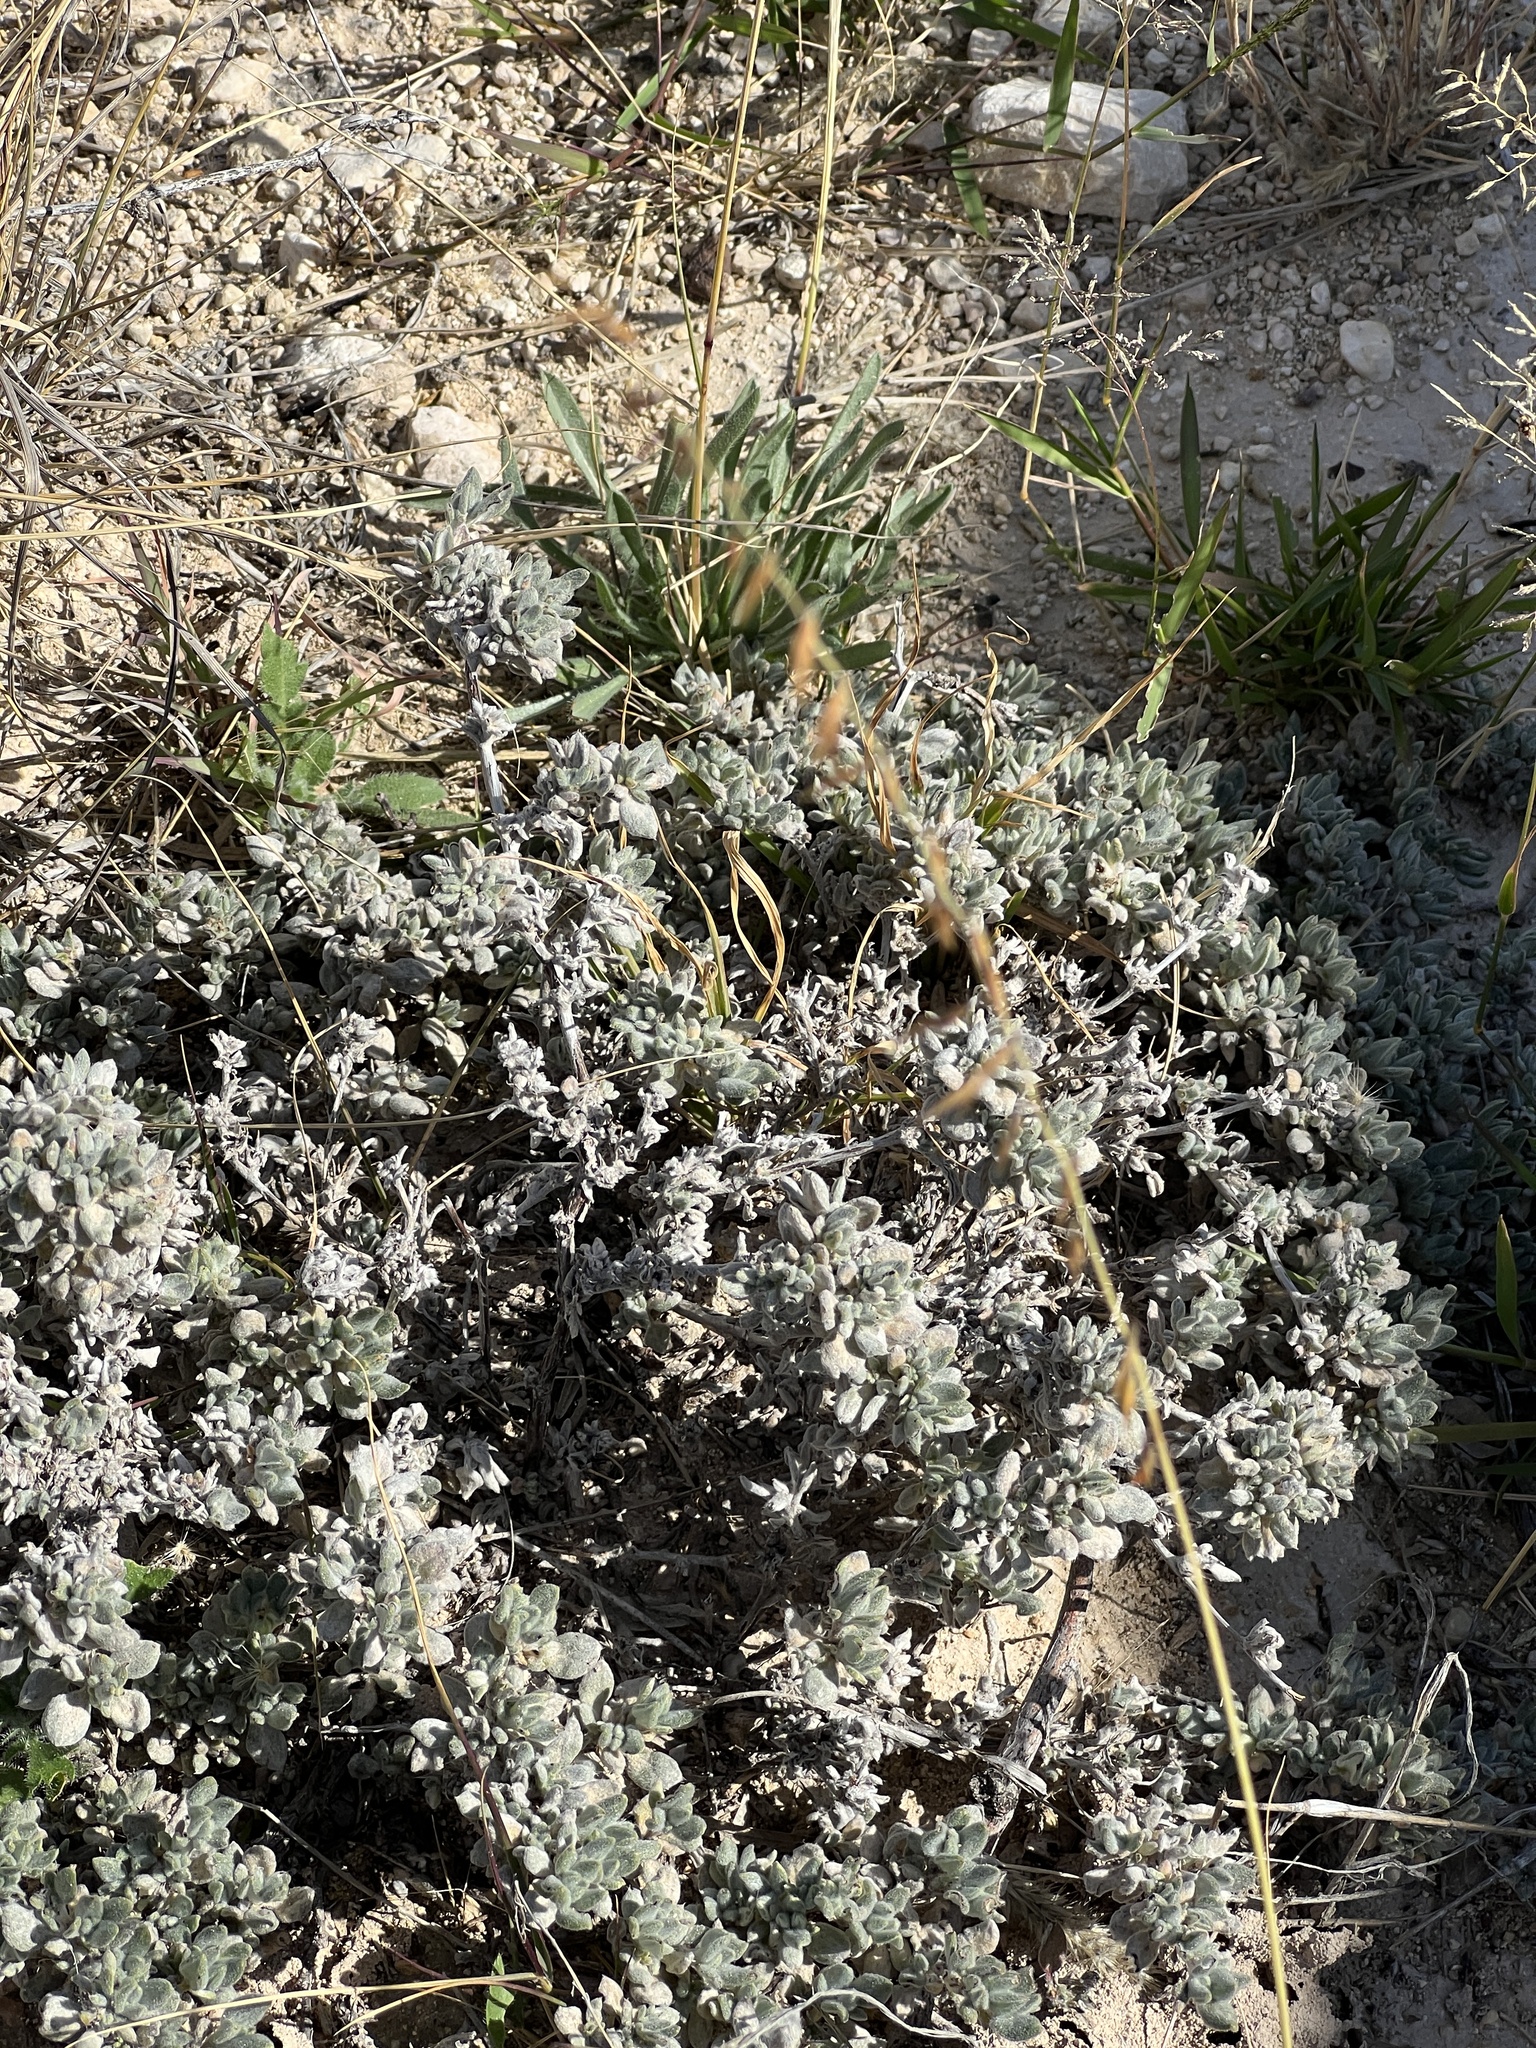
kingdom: Plantae
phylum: Tracheophyta
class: Magnoliopsida
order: Boraginales
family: Ehretiaceae
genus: Tiquilia
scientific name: Tiquilia canescens
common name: Hairy tiquilia
